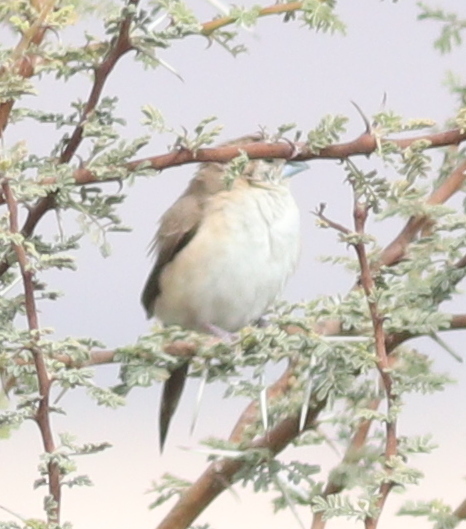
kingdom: Animalia
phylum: Chordata
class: Aves
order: Passeriformes
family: Estrildidae
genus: Euodice
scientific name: Euodice malabarica
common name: Indian silverbill
